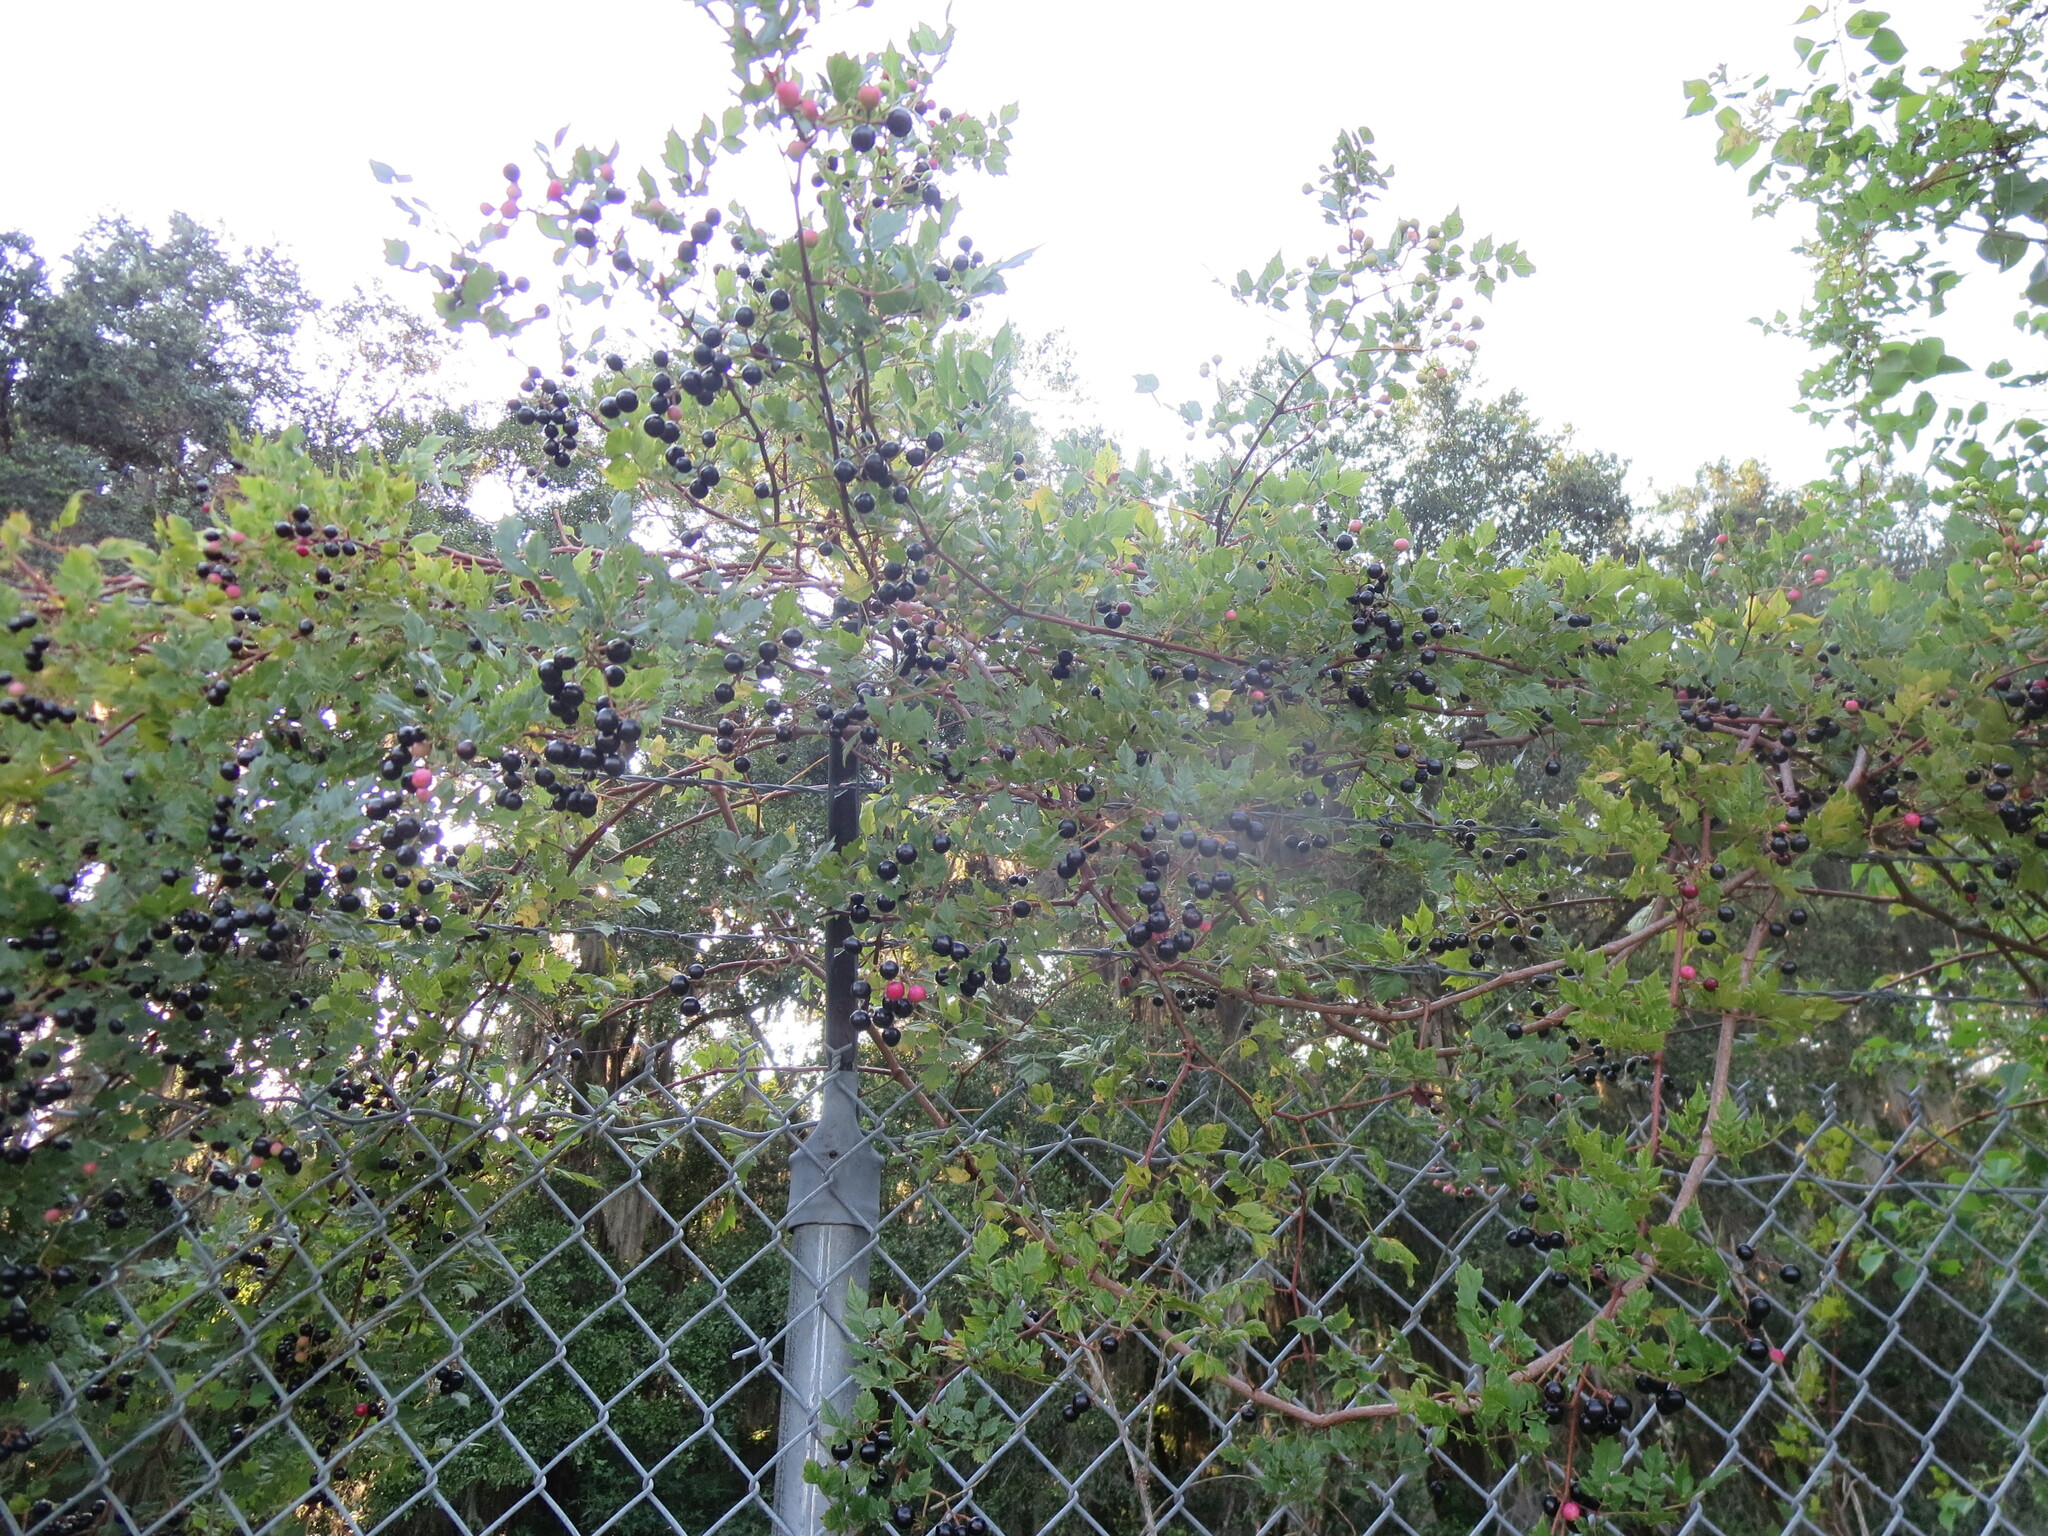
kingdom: Plantae
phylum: Tracheophyta
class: Magnoliopsida
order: Vitales
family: Vitaceae
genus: Nekemias
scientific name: Nekemias arborea
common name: Peppervine
